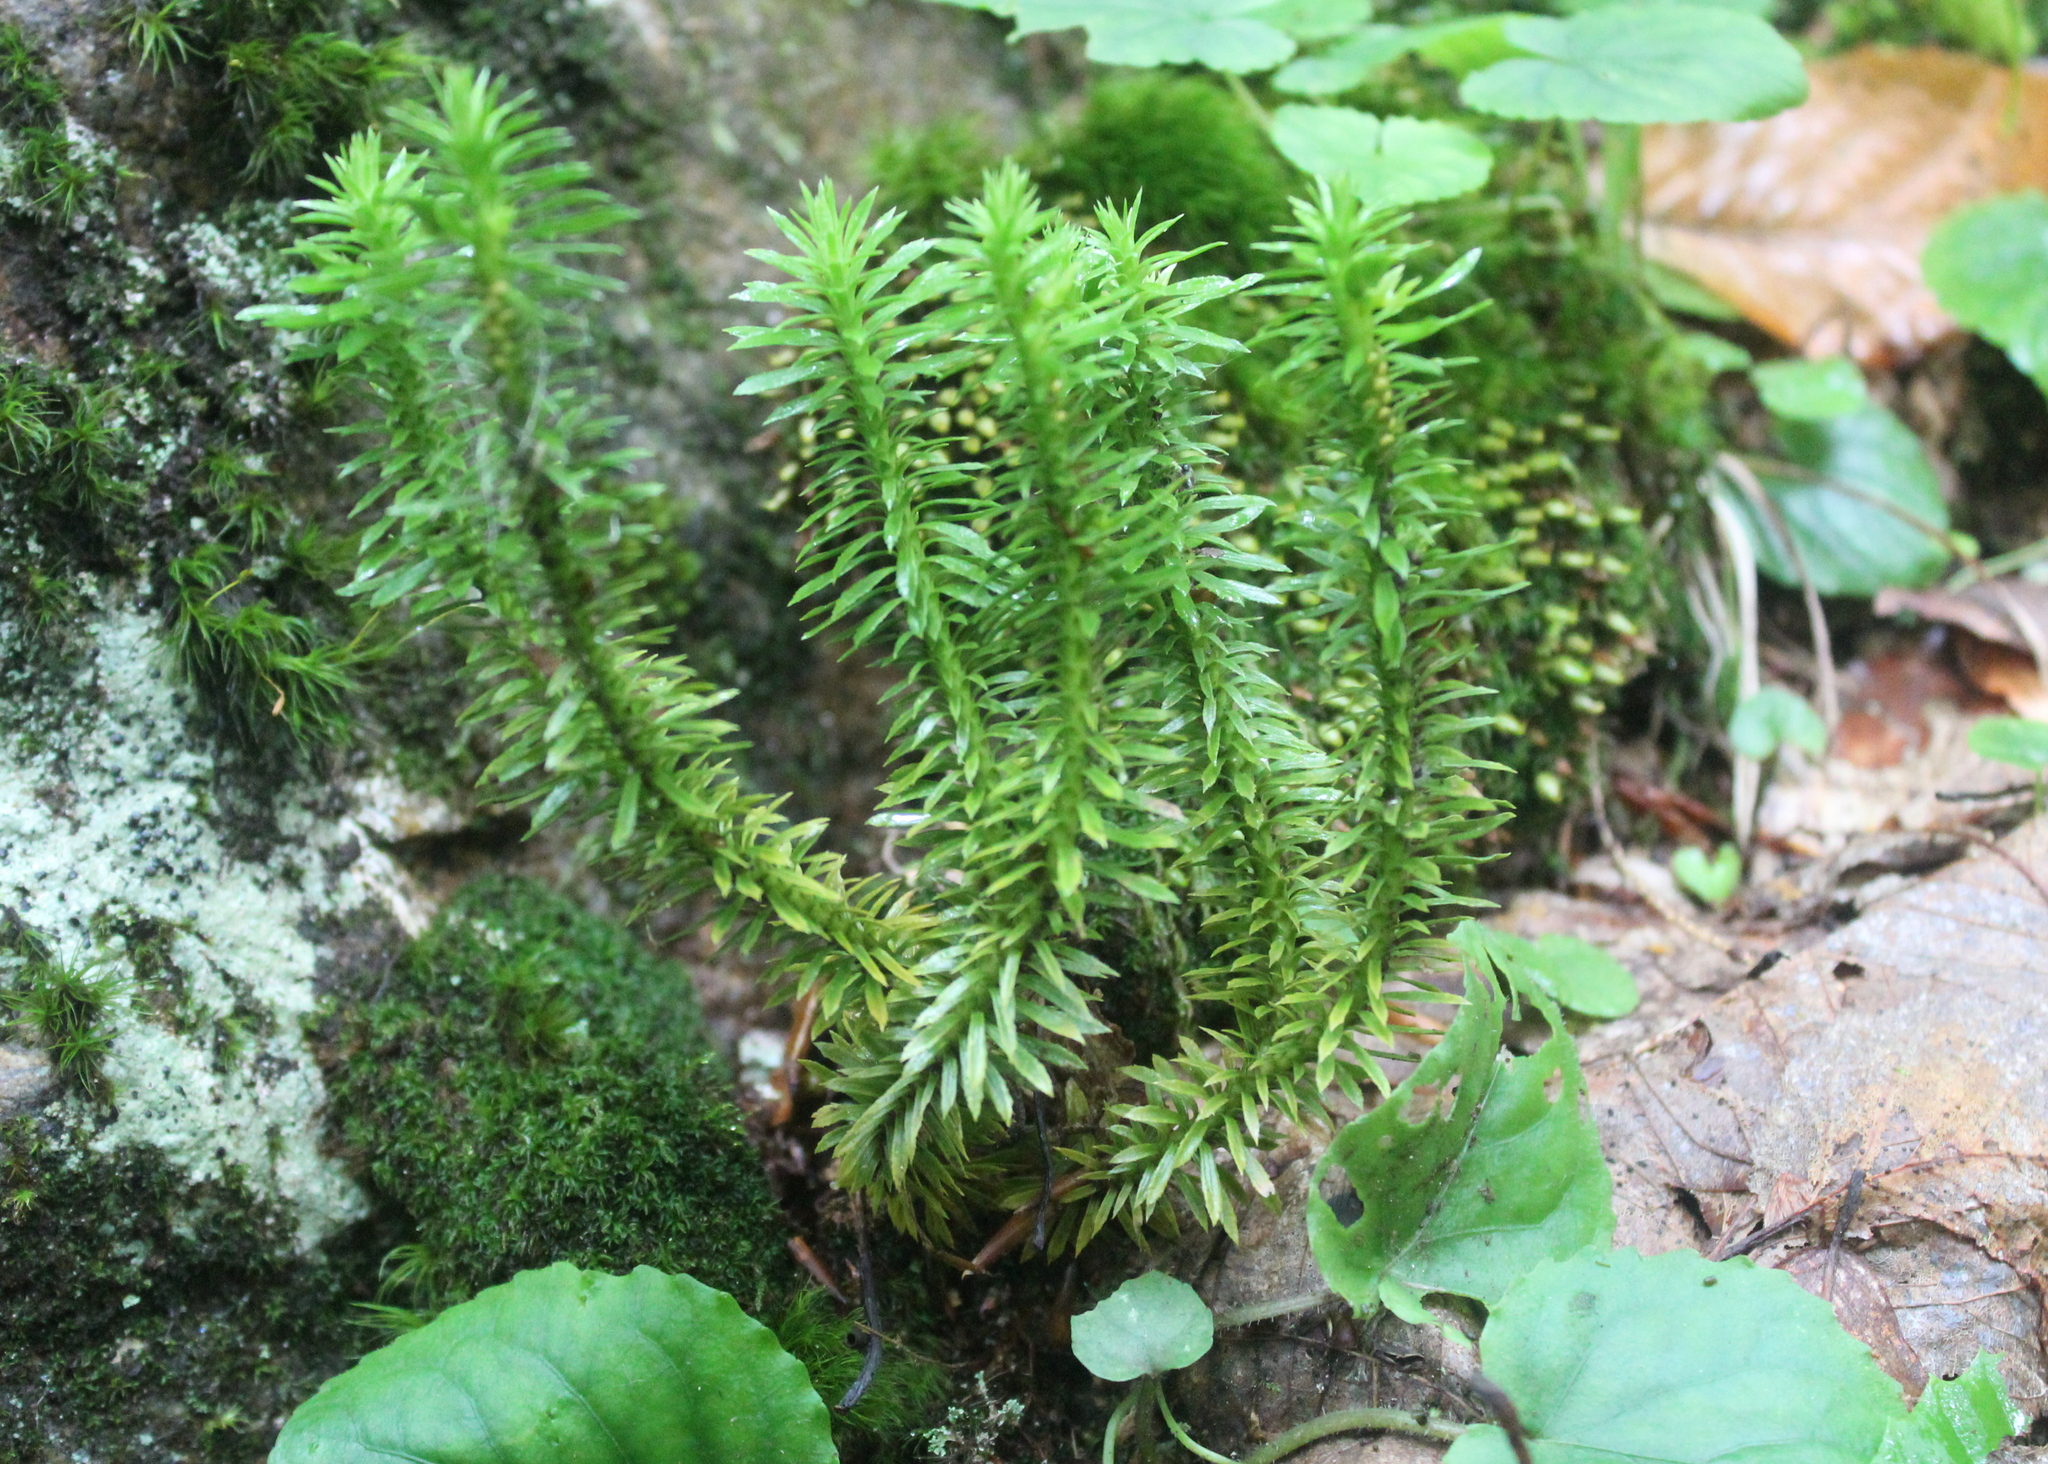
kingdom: Plantae
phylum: Tracheophyta
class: Lycopodiopsida
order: Lycopodiales
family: Lycopodiaceae
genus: Huperzia
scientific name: Huperzia lucidula
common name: Shining clubmoss
